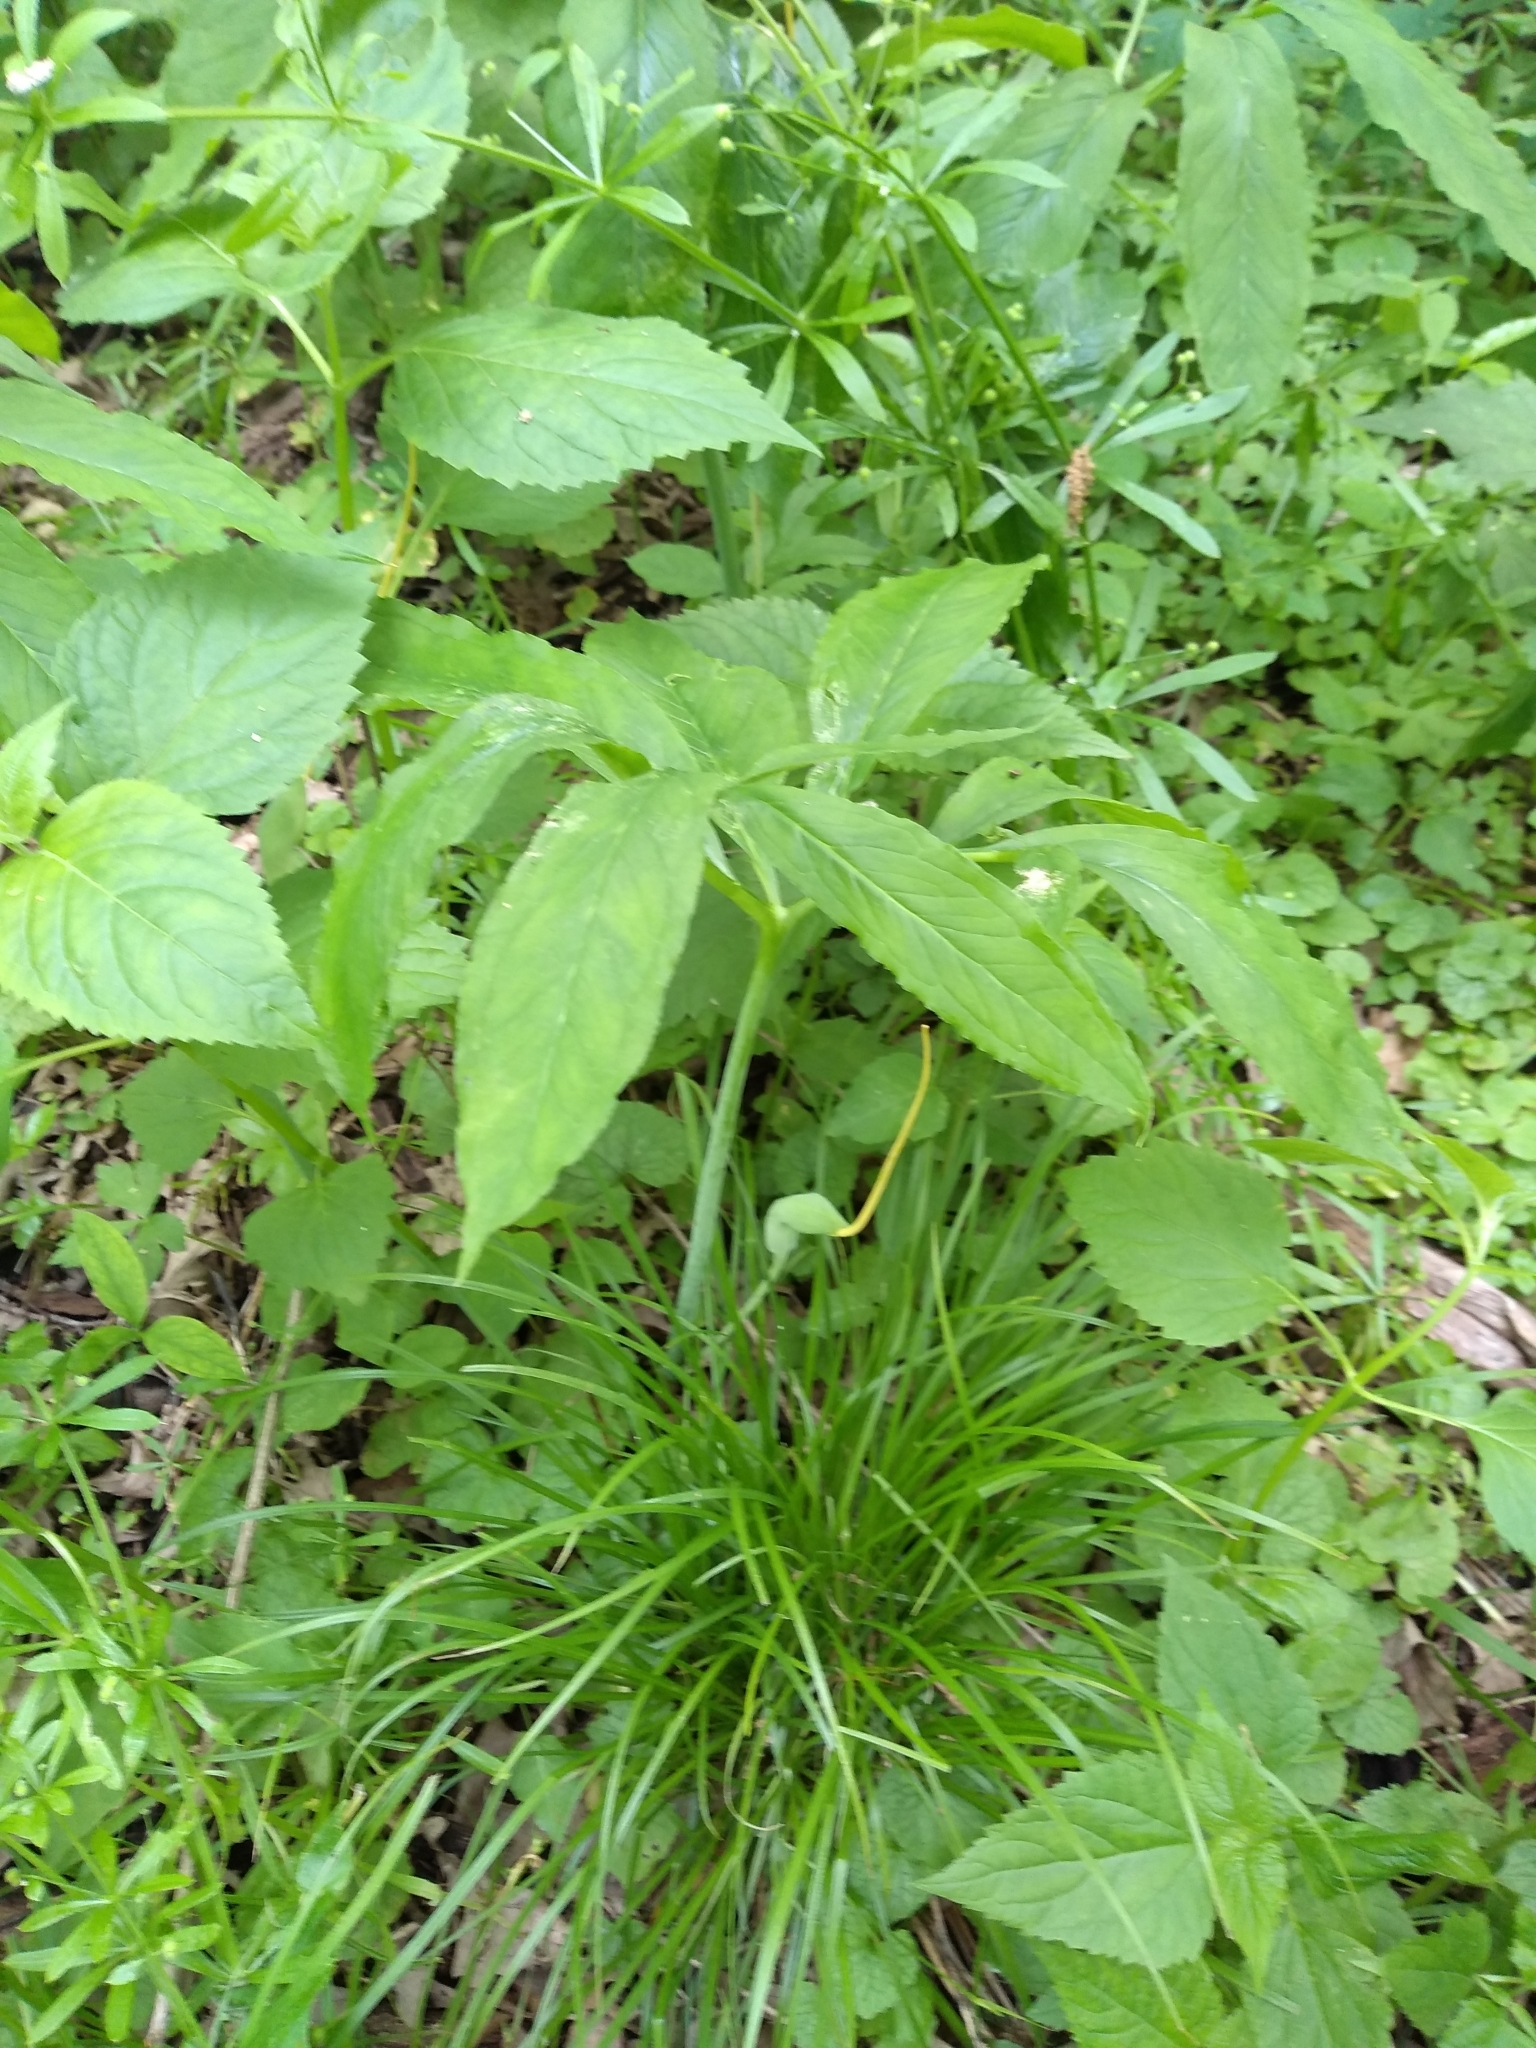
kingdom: Plantae
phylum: Tracheophyta
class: Liliopsida
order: Alismatales
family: Araceae
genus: Arisaema
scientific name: Arisaema dracontium
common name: Dragon-arum
